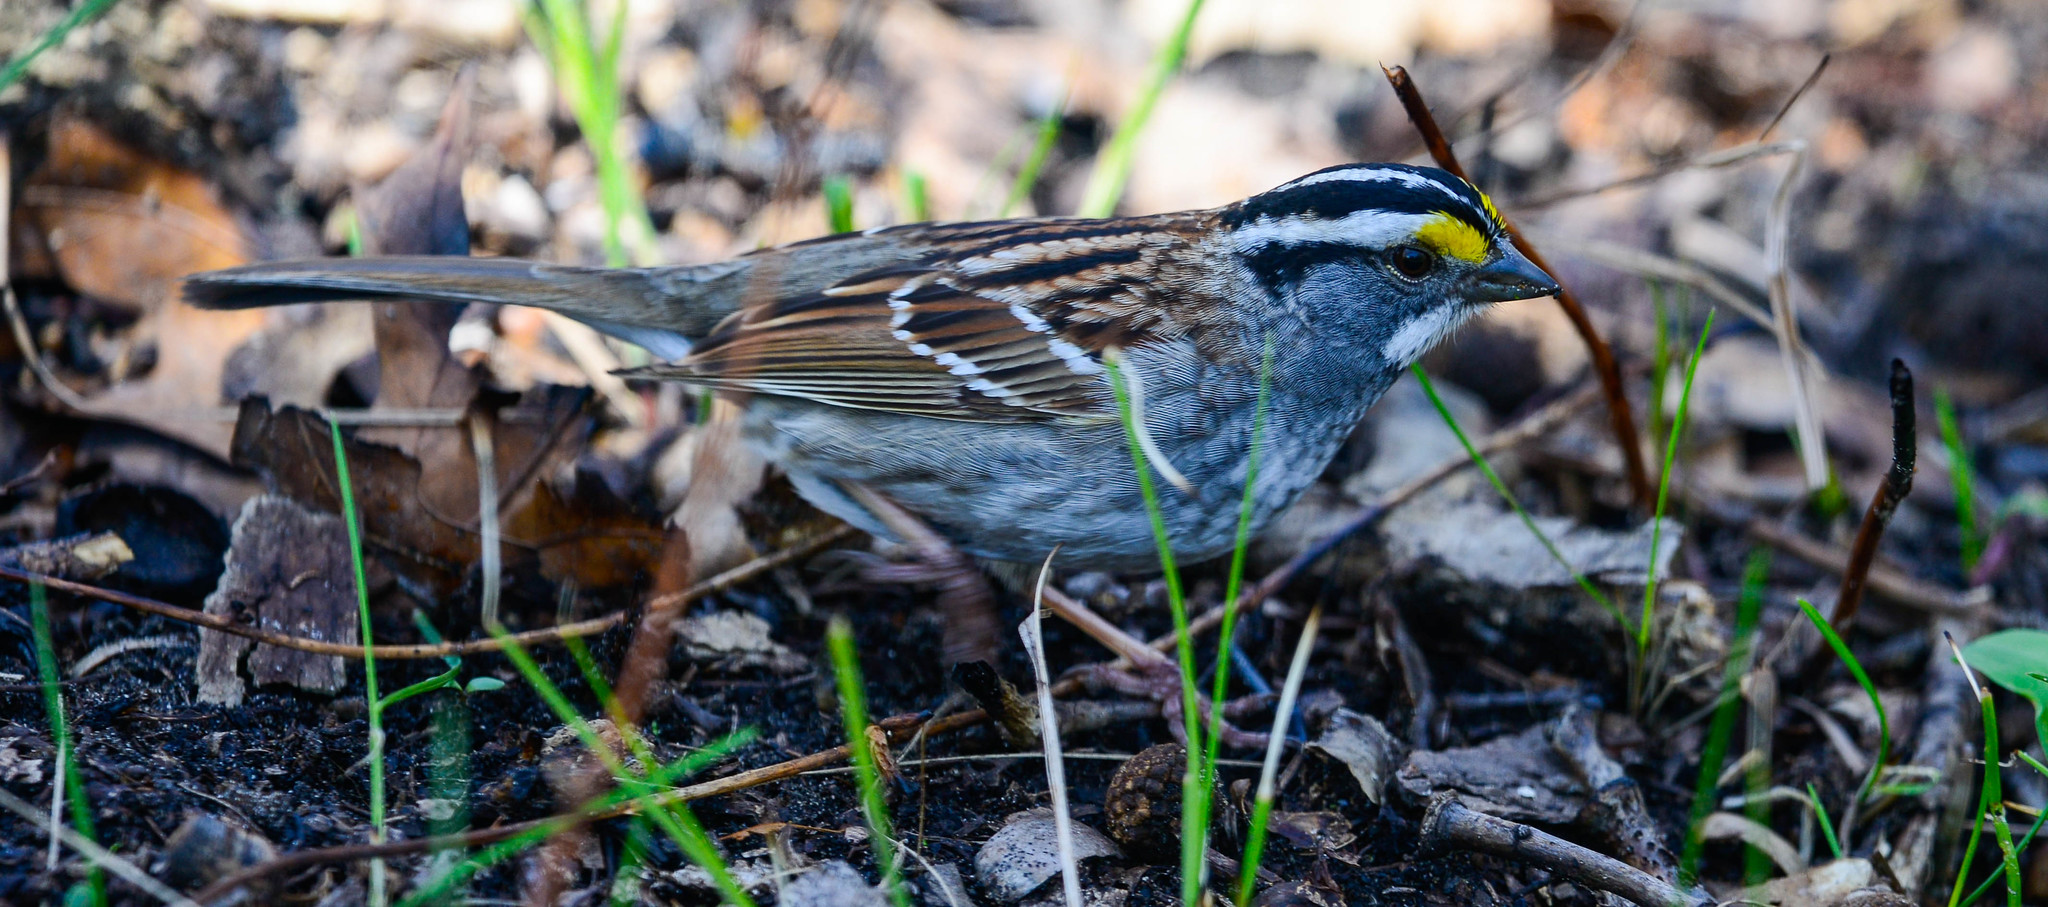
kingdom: Animalia
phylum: Chordata
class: Aves
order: Passeriformes
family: Passerellidae
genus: Zonotrichia
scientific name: Zonotrichia albicollis
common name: White-throated sparrow
